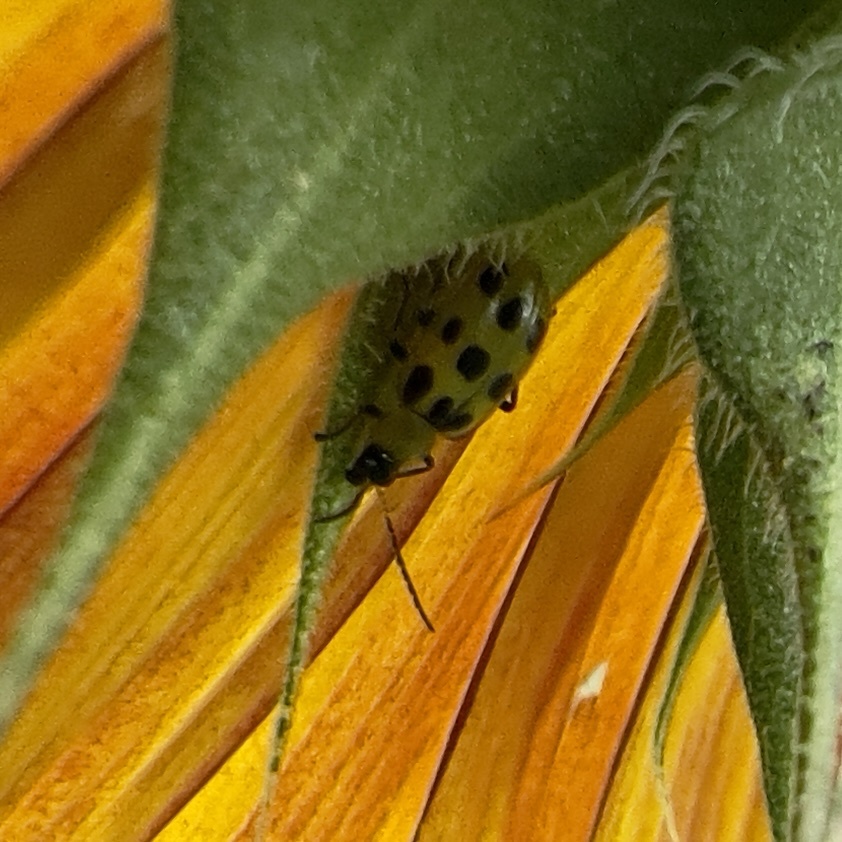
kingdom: Animalia
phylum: Arthropoda
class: Insecta
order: Coleoptera
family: Chrysomelidae
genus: Diabrotica
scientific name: Diabrotica undecimpunctata
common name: Spotted cucumber beetle
